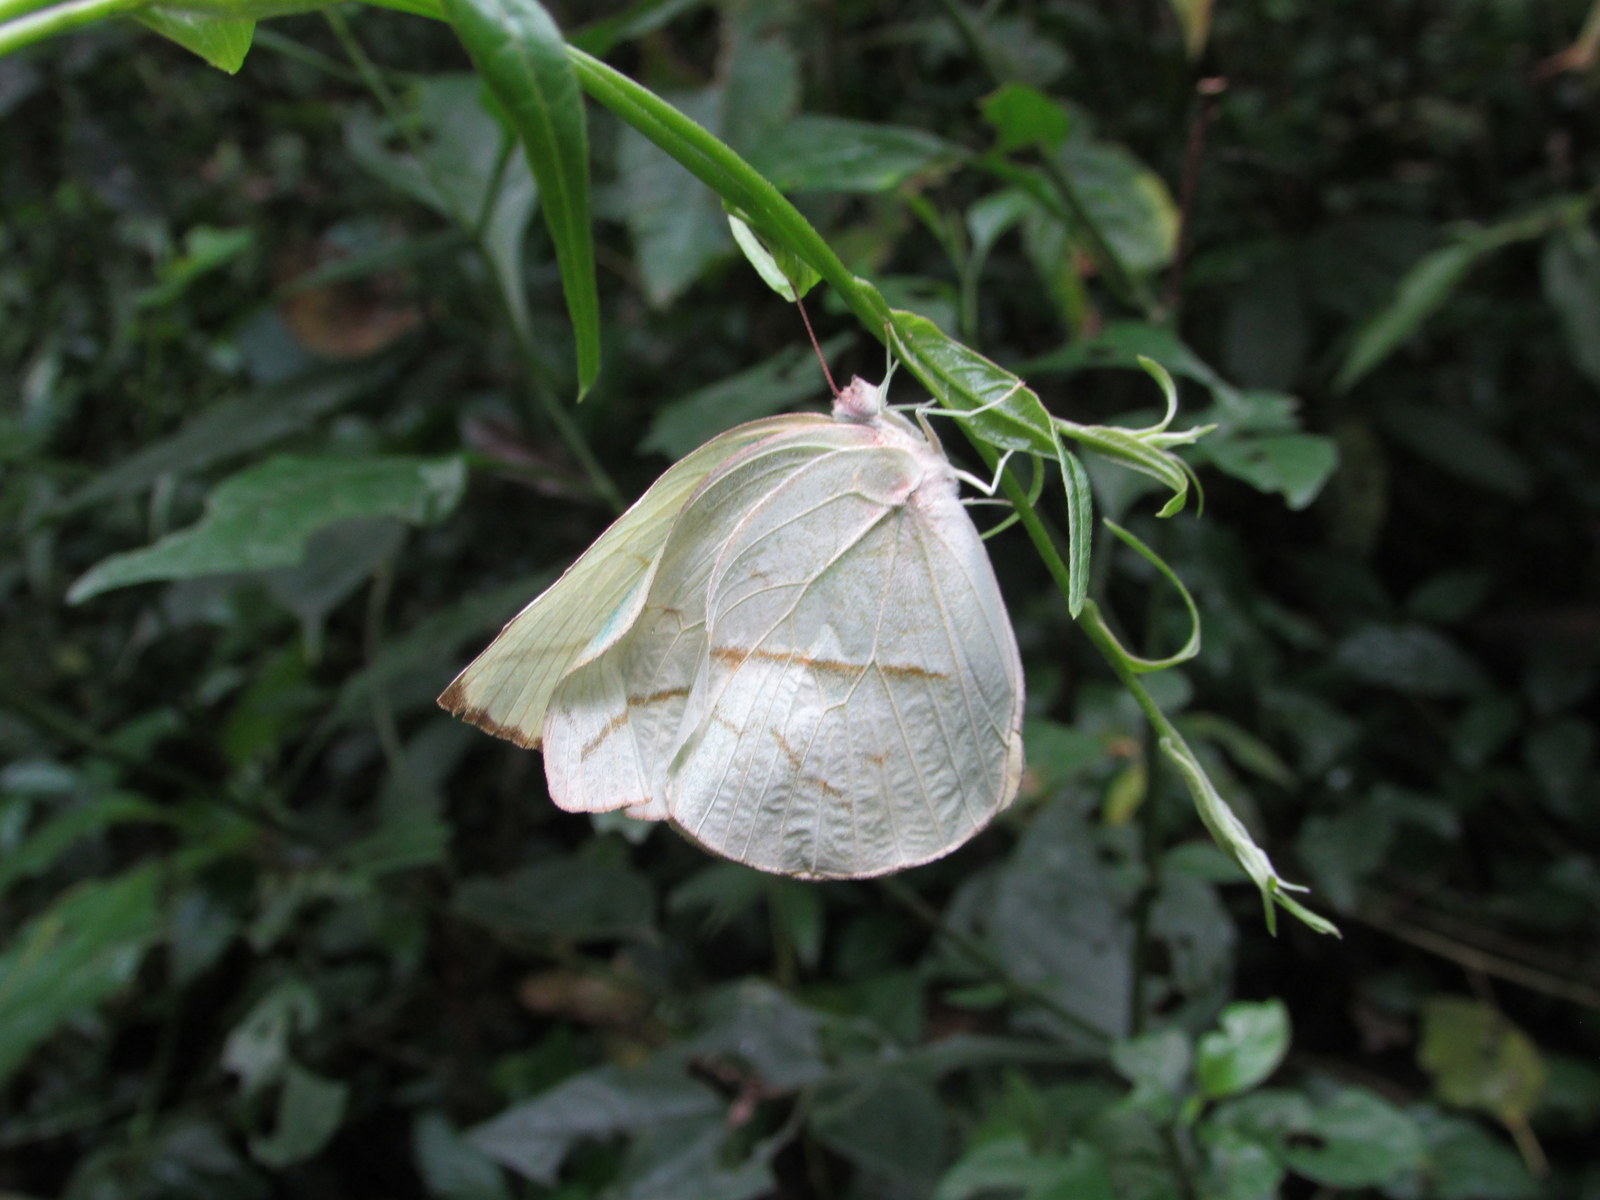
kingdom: Animalia
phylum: Arthropoda
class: Insecta
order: Lepidoptera
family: Pieridae
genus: Rhabdodryas
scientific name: Rhabdodryas trite
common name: Straight-lined sulphur
